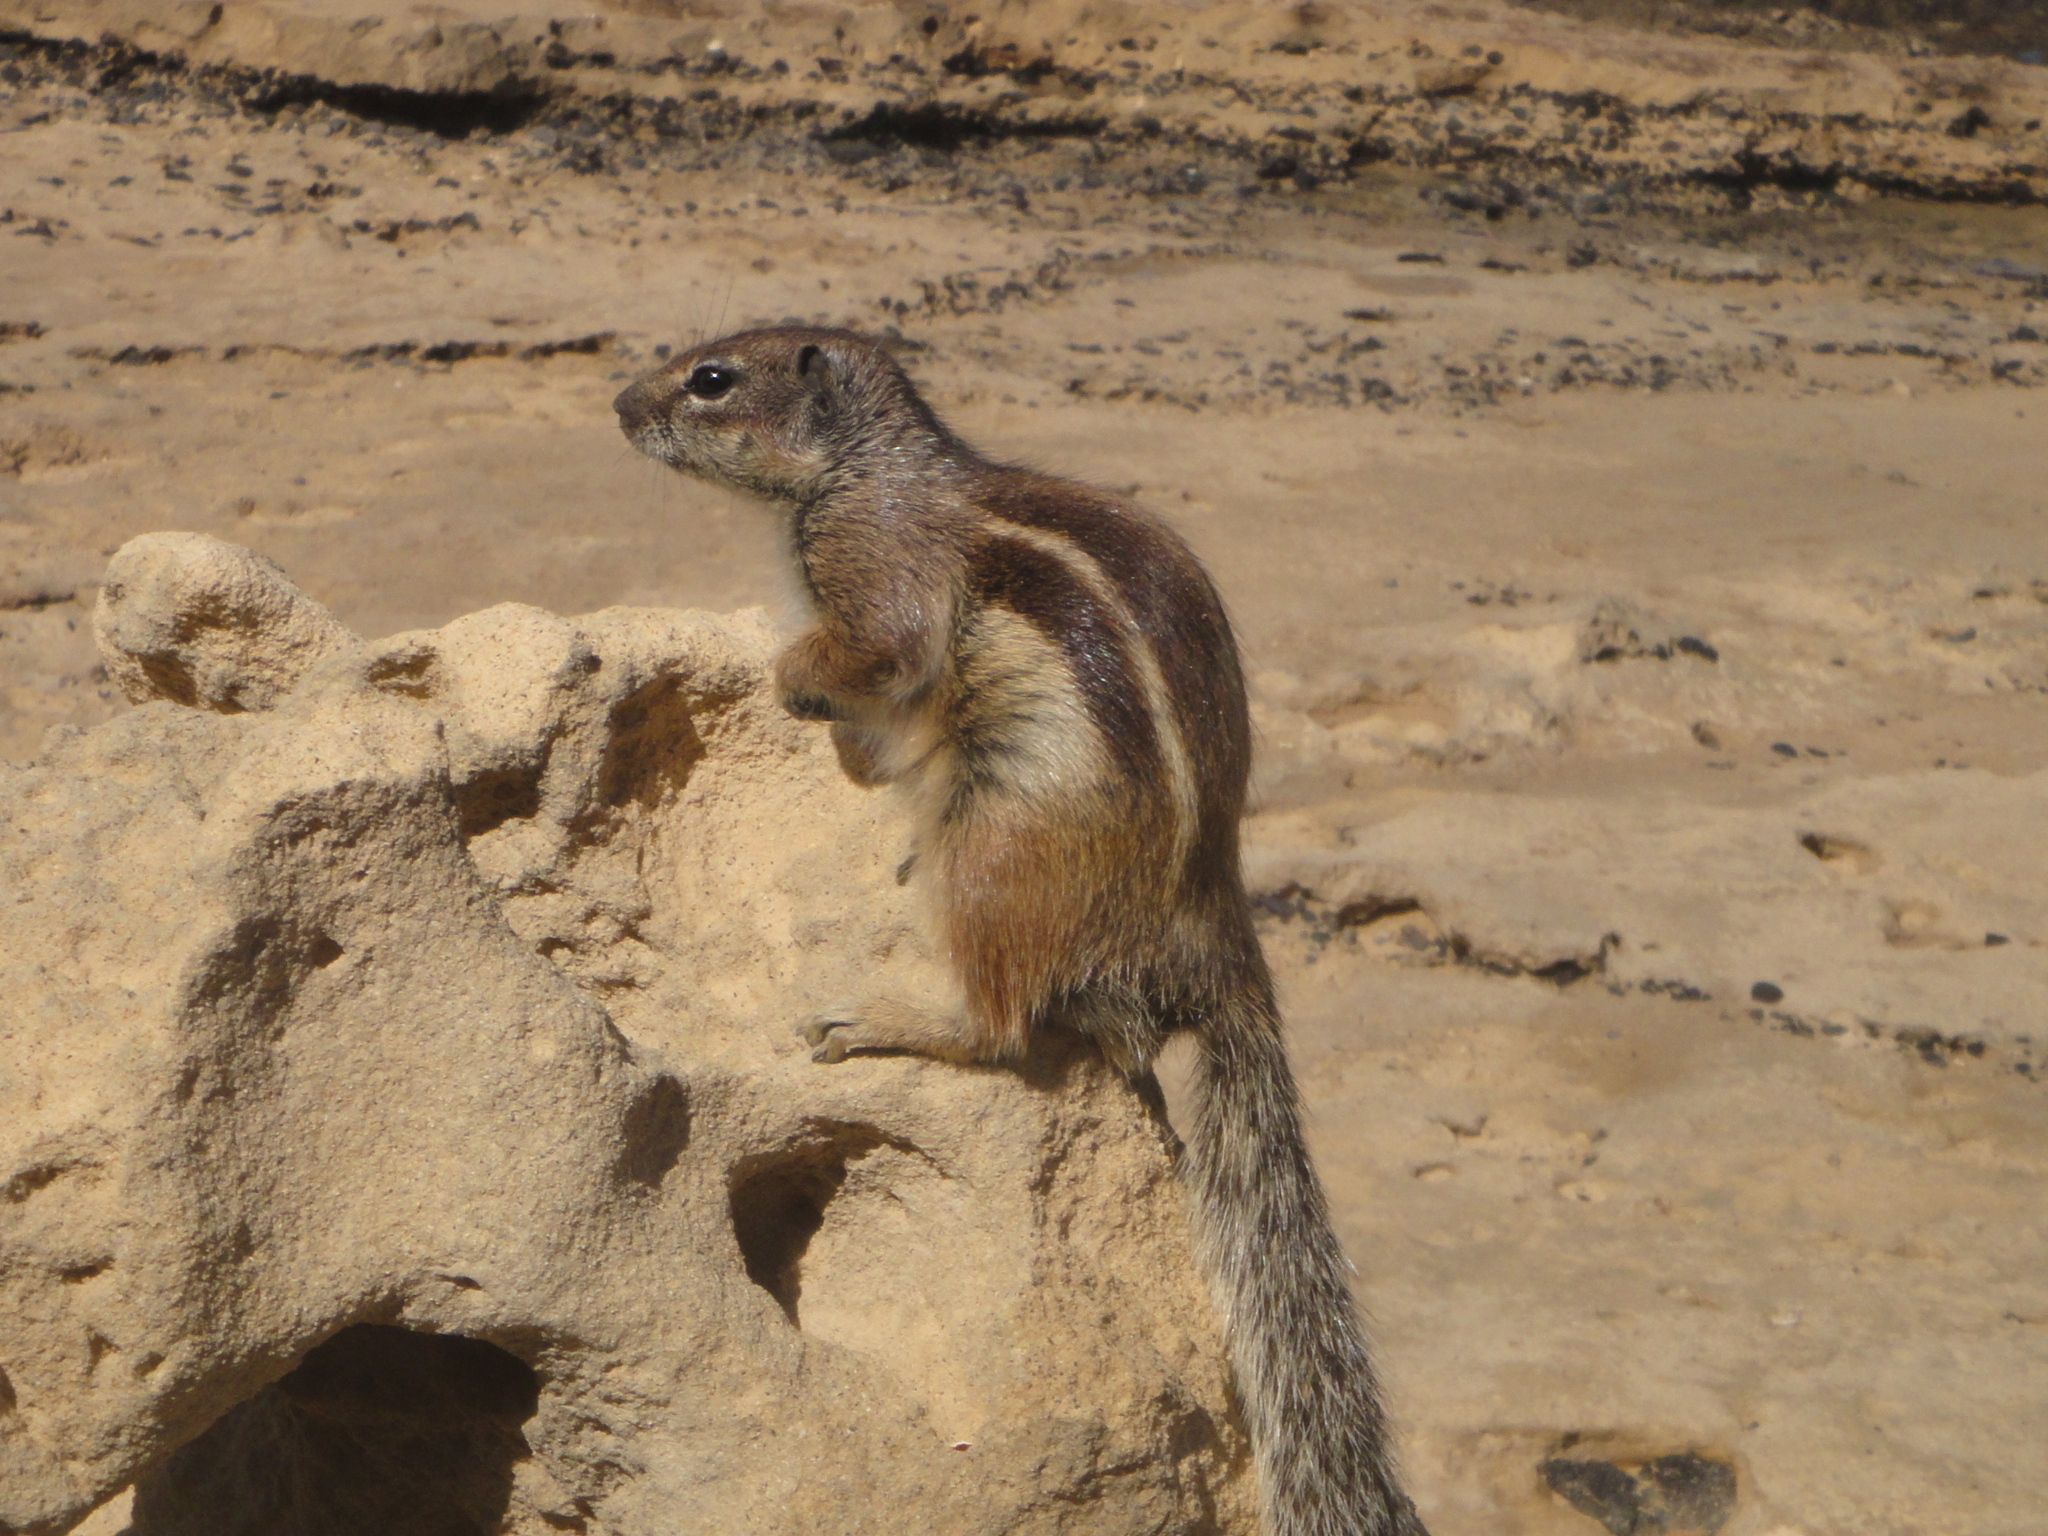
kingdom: Animalia
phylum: Chordata
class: Mammalia
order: Rodentia
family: Sciuridae
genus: Atlantoxerus
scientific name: Atlantoxerus getulus
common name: Barbary ground squirrel
